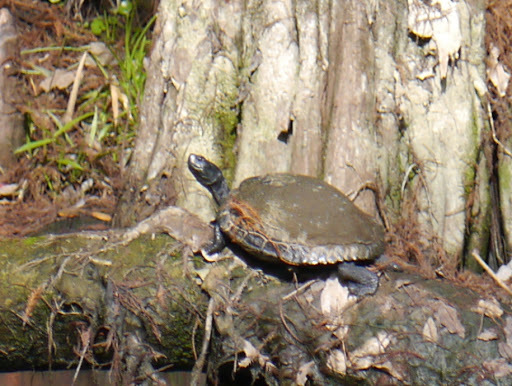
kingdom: Animalia
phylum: Chordata
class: Testudines
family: Emydidae
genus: Trachemys
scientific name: Trachemys scripta
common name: Slider
